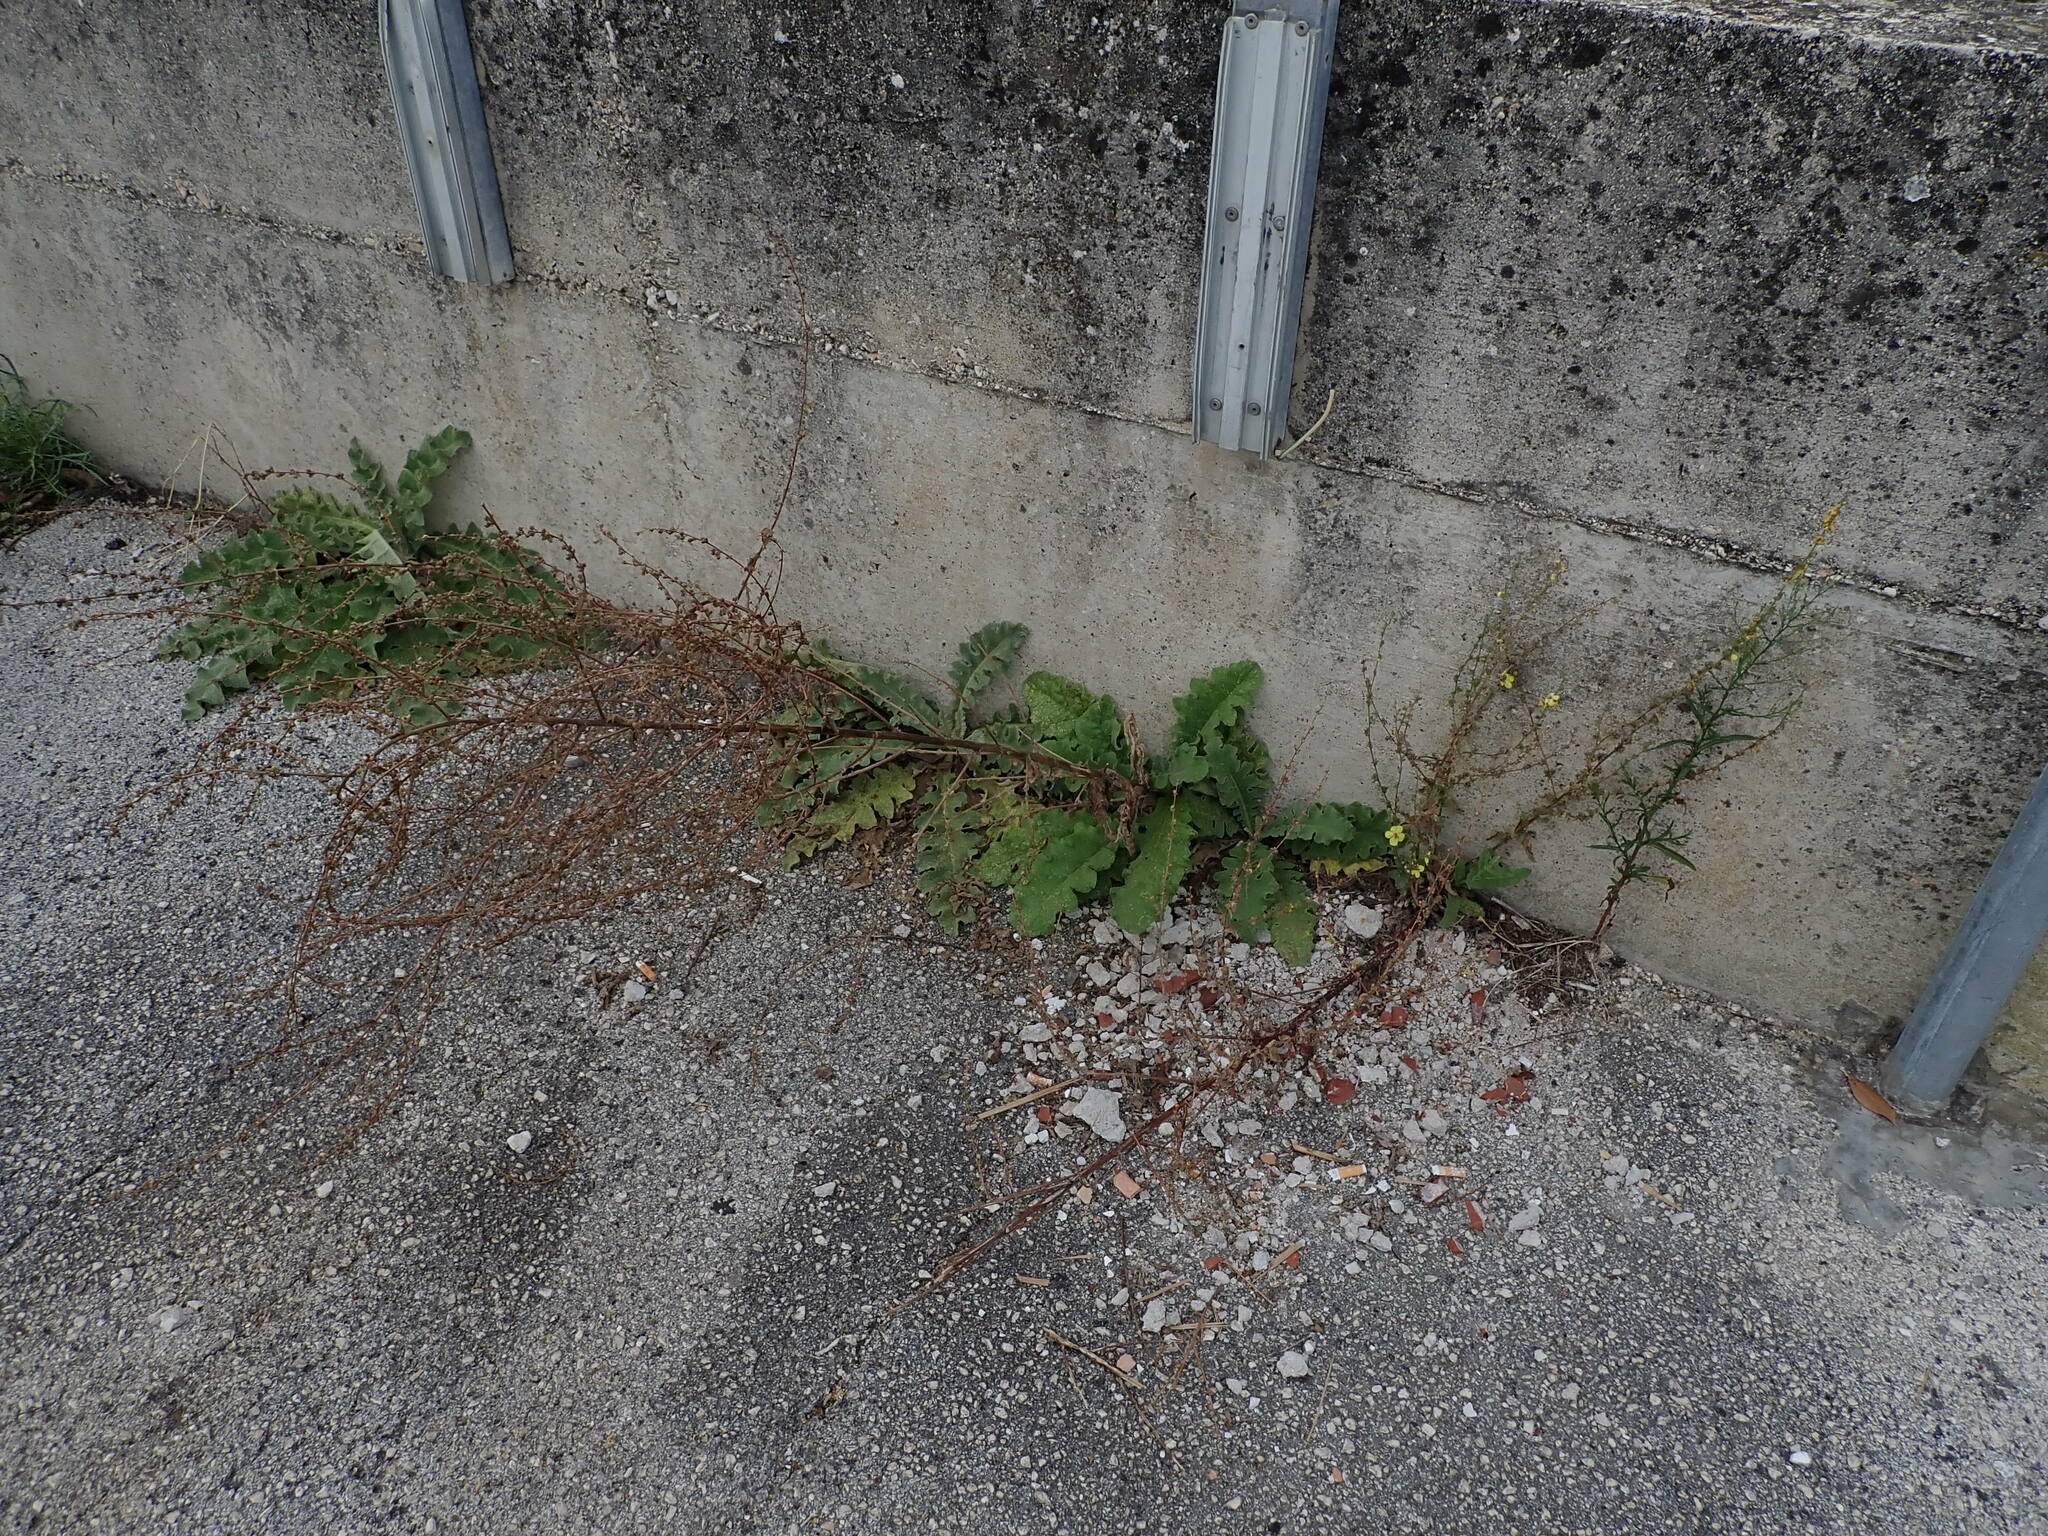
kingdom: Plantae
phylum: Tracheophyta
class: Magnoliopsida
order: Lamiales
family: Scrophulariaceae
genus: Verbascum
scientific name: Verbascum sinuatum
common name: Wavyleaf mullein
